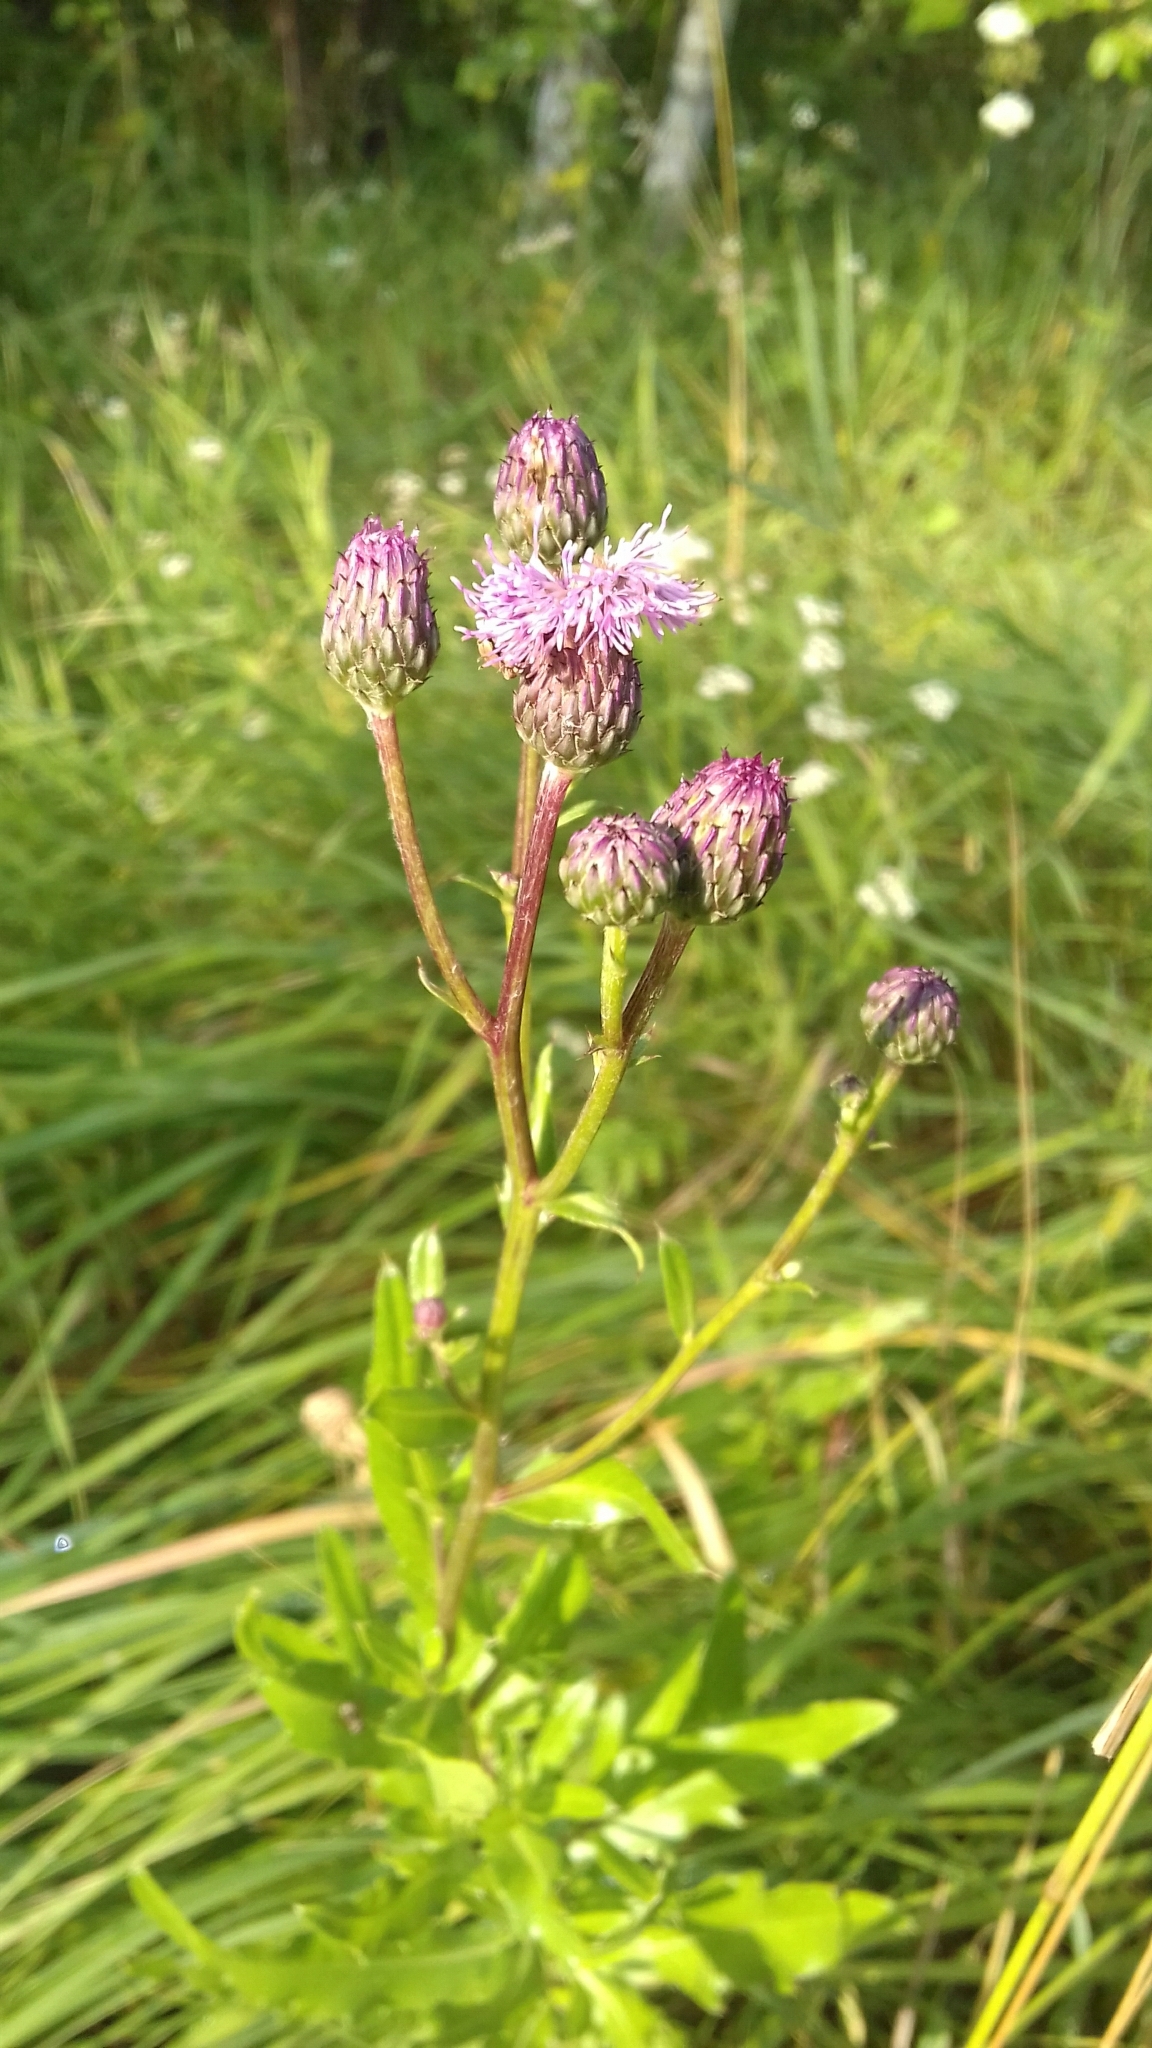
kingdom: Plantae
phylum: Tracheophyta
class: Magnoliopsida
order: Asterales
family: Asteraceae
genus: Cirsium
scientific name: Cirsium arvense
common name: Creeping thistle
